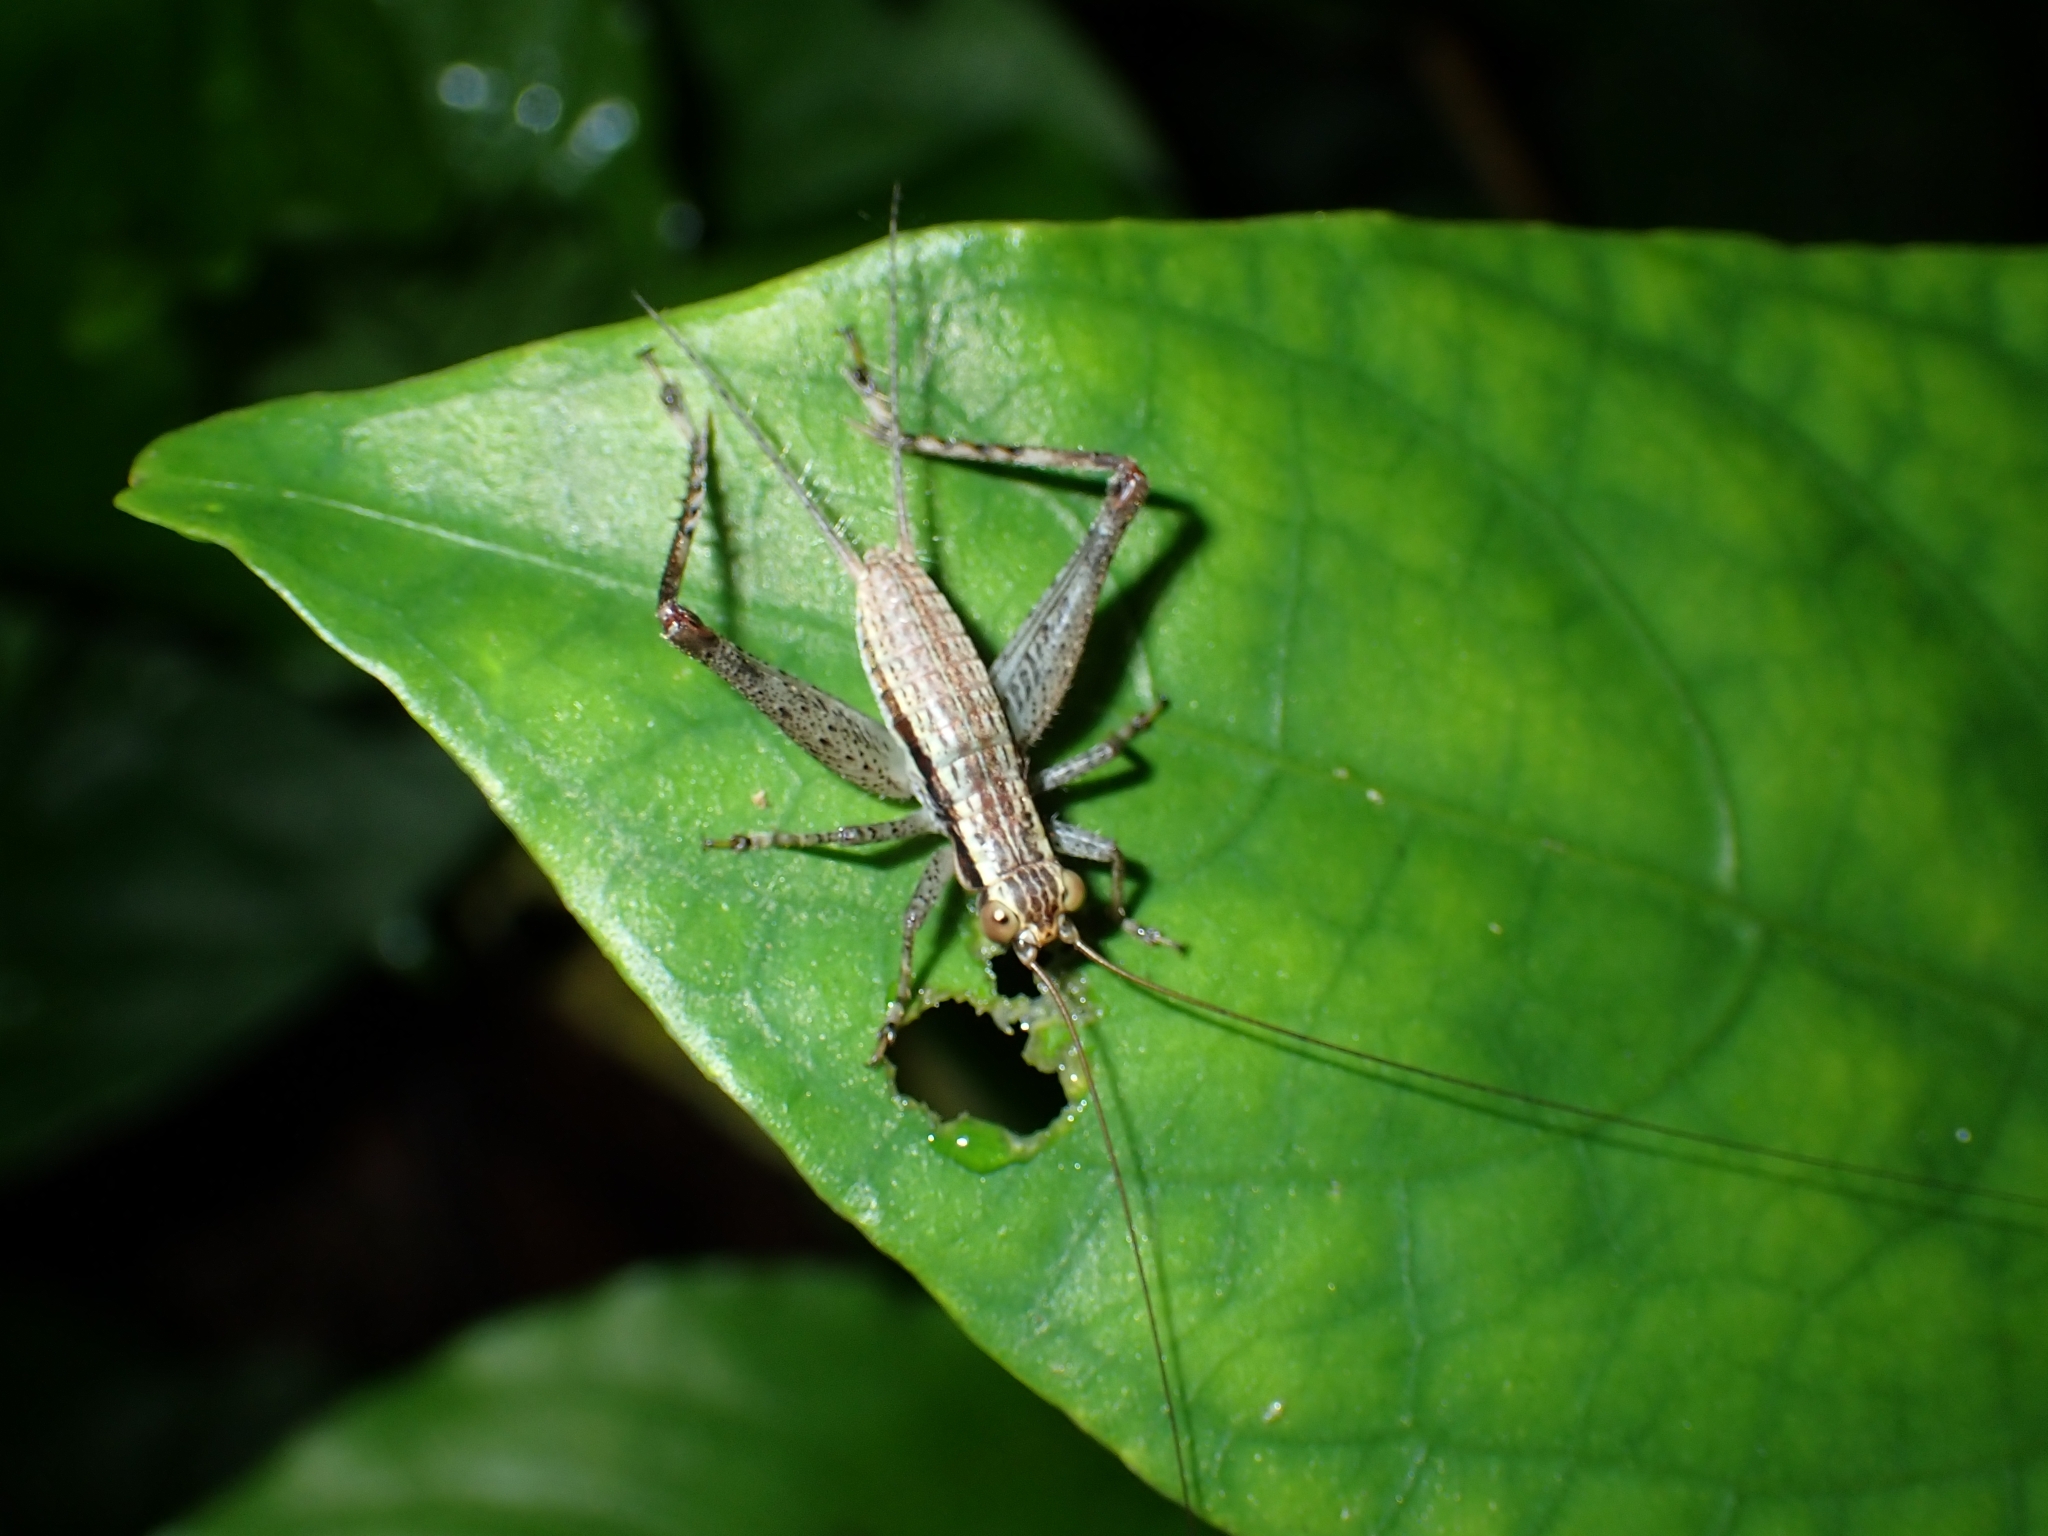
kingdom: Animalia
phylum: Arthropoda
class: Insecta
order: Orthoptera
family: Gryllidae
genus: Cardiodactylus
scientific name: Cardiodactylus novaeguineae
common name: Sad cricket
